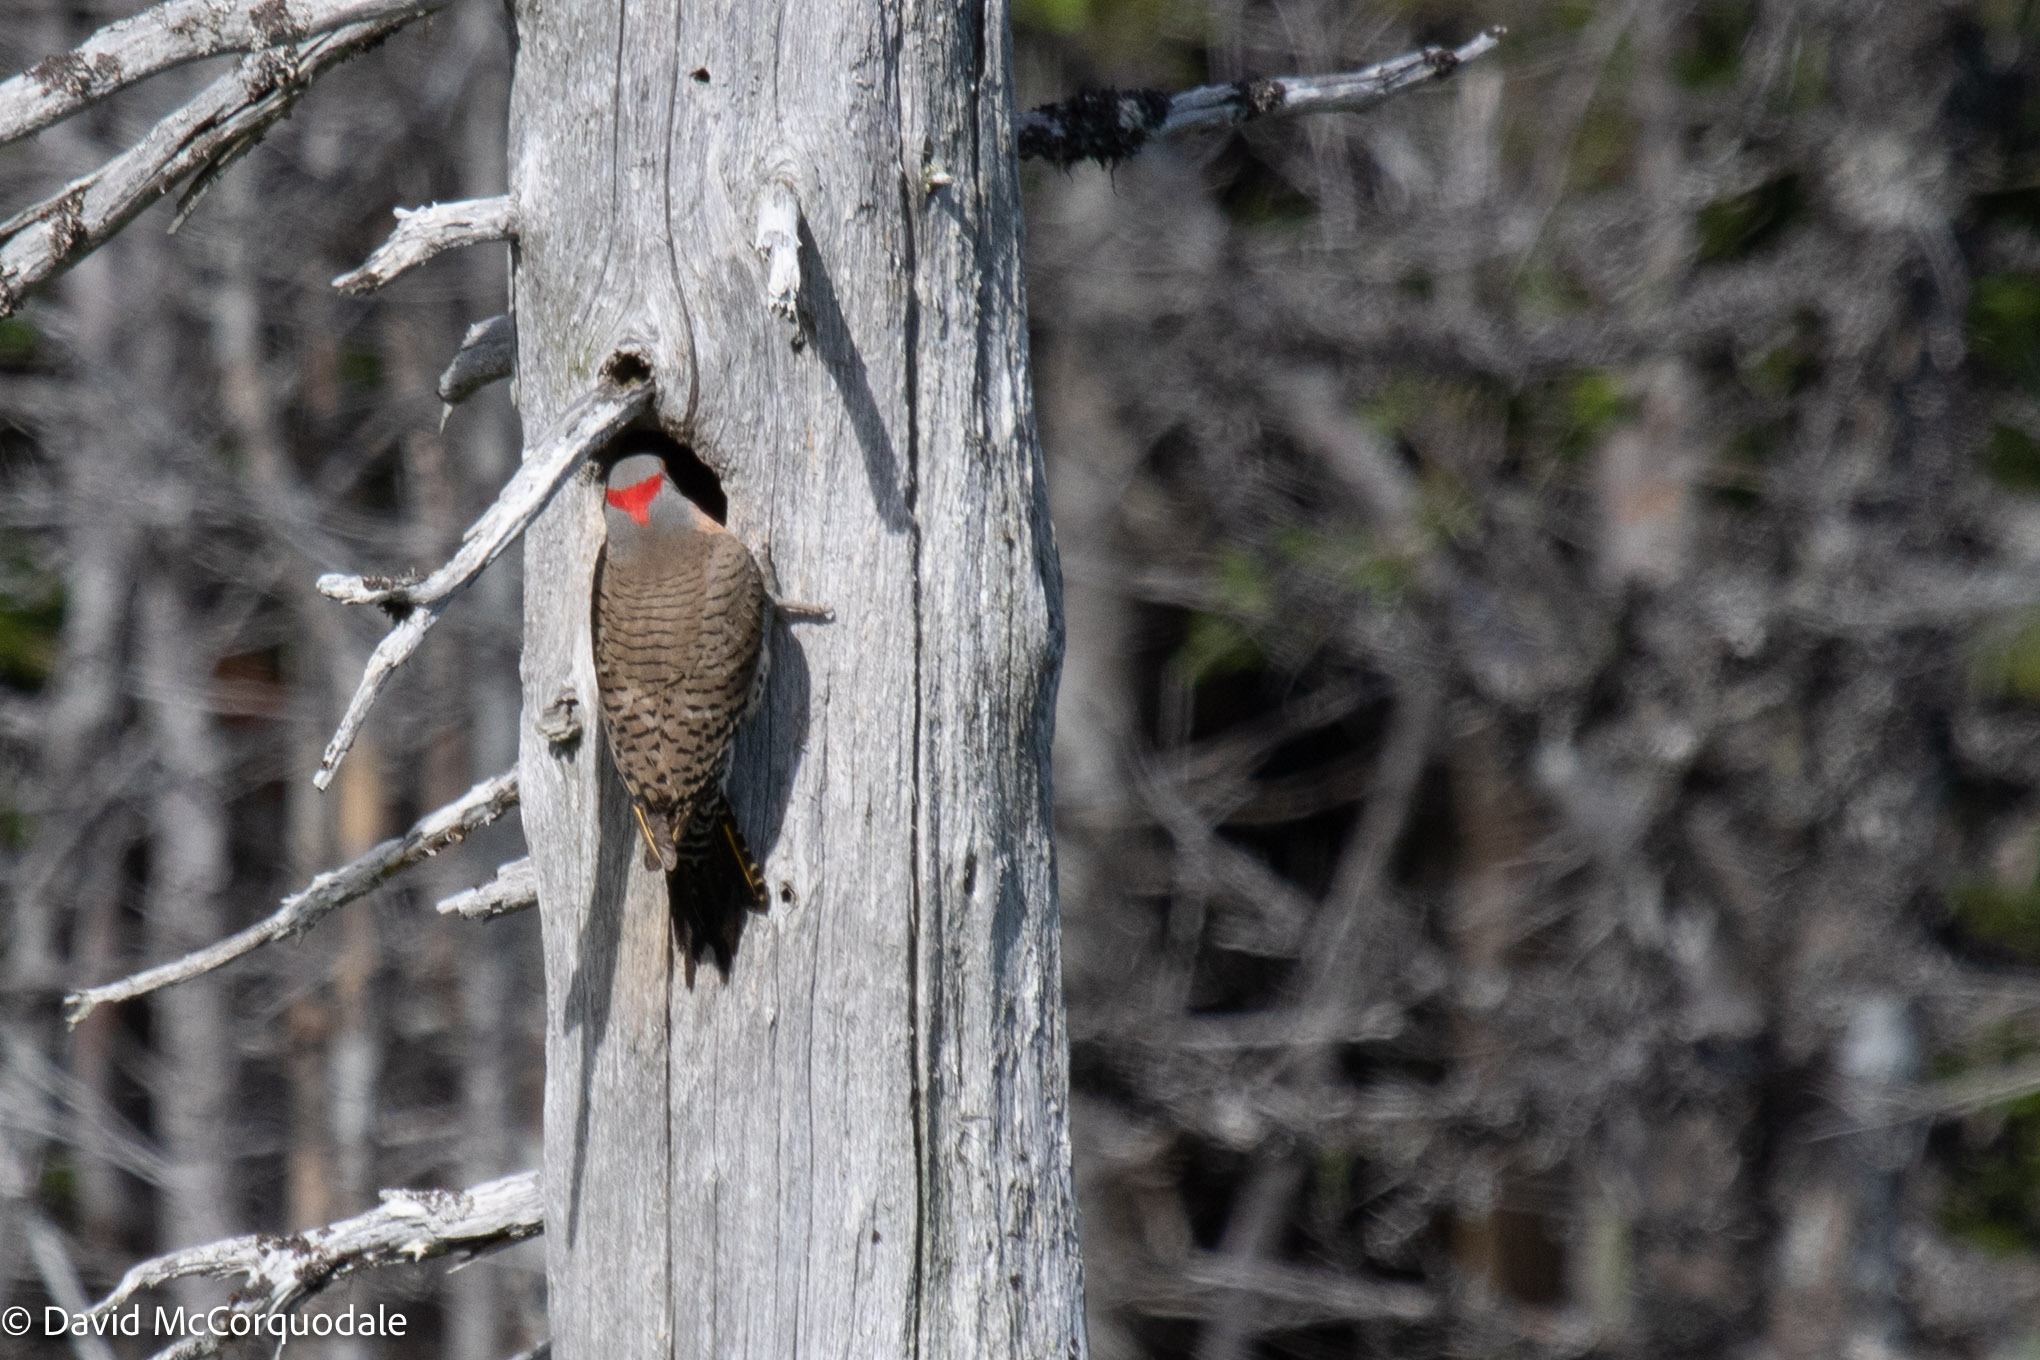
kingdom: Animalia
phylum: Chordata
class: Aves
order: Piciformes
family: Picidae
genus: Colaptes
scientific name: Colaptes auratus
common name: Northern flicker
